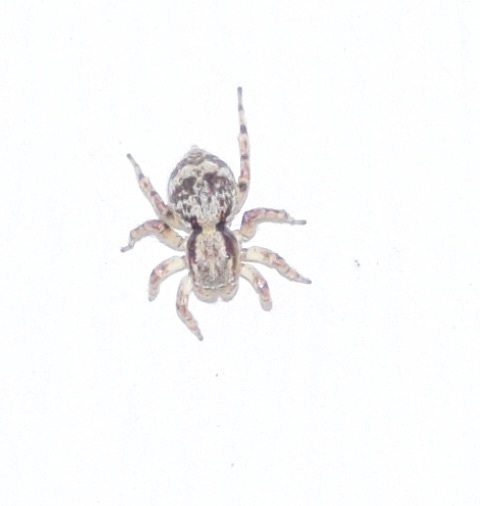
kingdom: Animalia
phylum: Arthropoda
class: Arachnida
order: Araneae
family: Salticidae
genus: Naphrys
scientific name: Naphrys pulex
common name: Flea jumping spider
